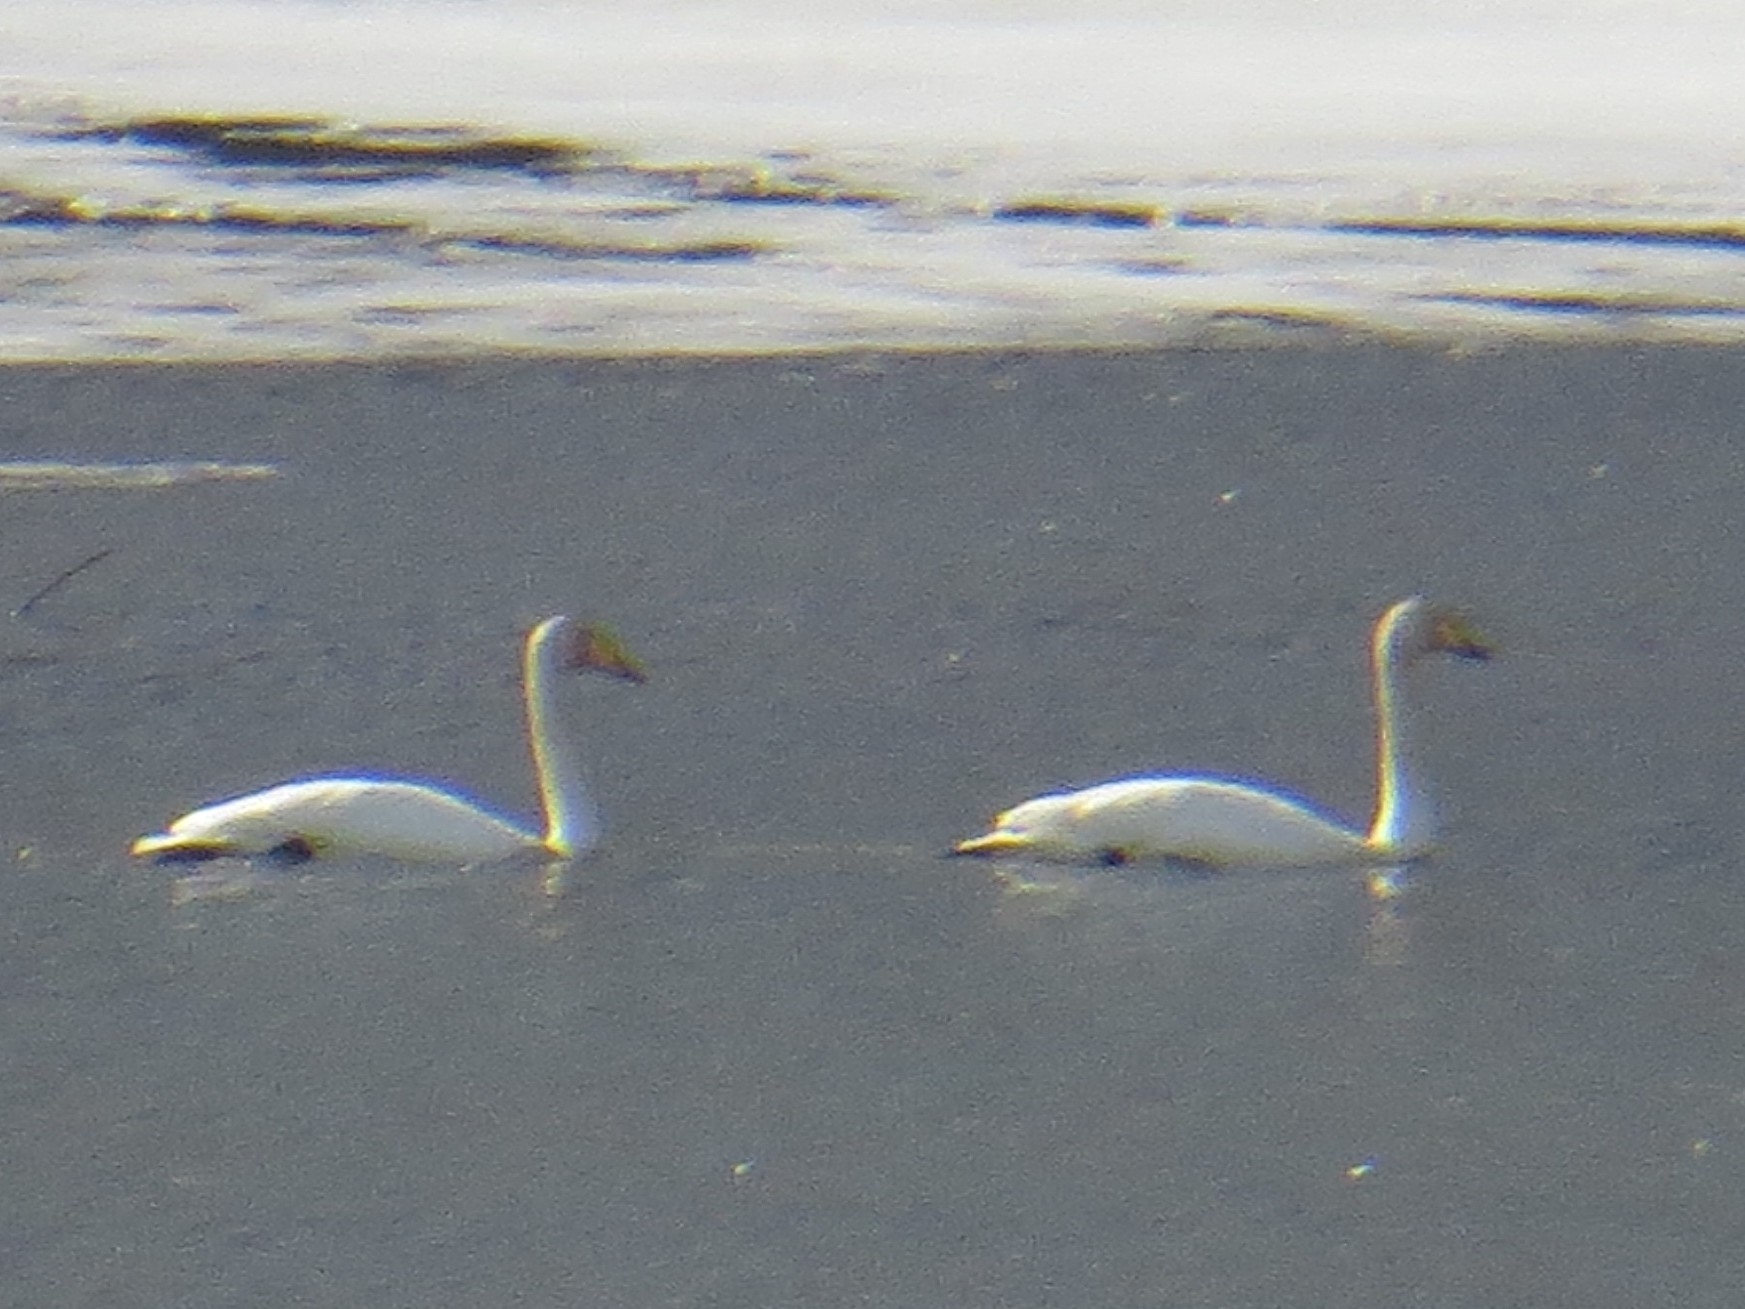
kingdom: Animalia
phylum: Chordata
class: Aves
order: Anseriformes
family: Anatidae
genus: Cygnus
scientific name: Cygnus cygnus
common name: Whooper swan
